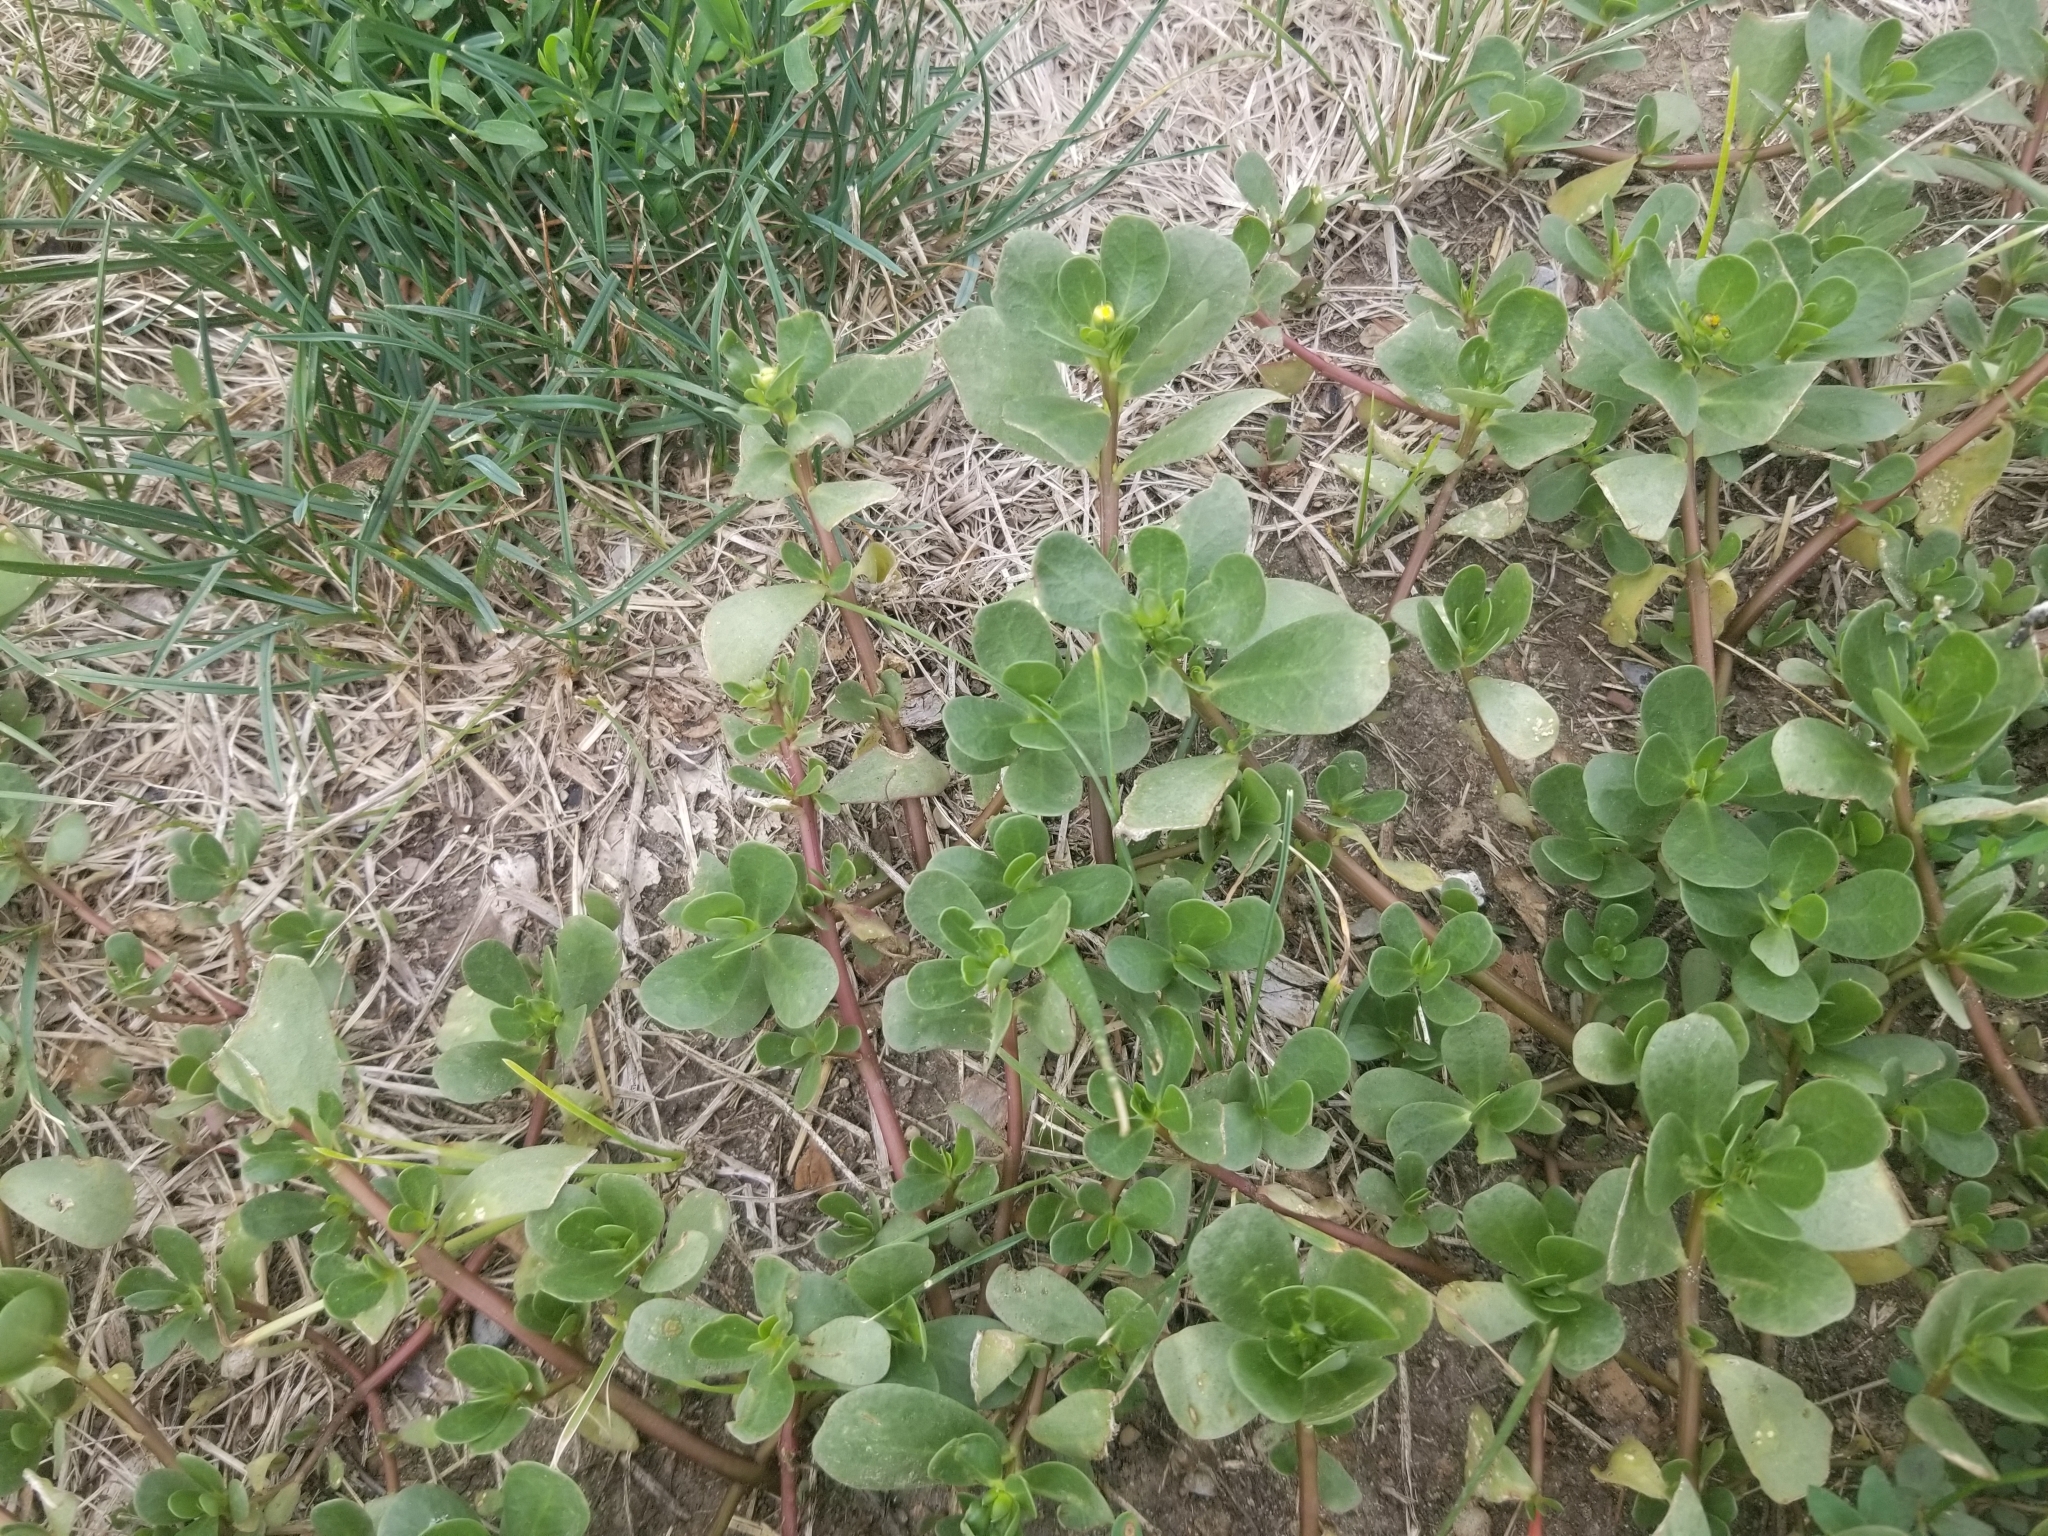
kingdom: Plantae
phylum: Tracheophyta
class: Magnoliopsida
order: Caryophyllales
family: Portulacaceae
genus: Portulaca
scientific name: Portulaca oleracea
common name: Common purslane
